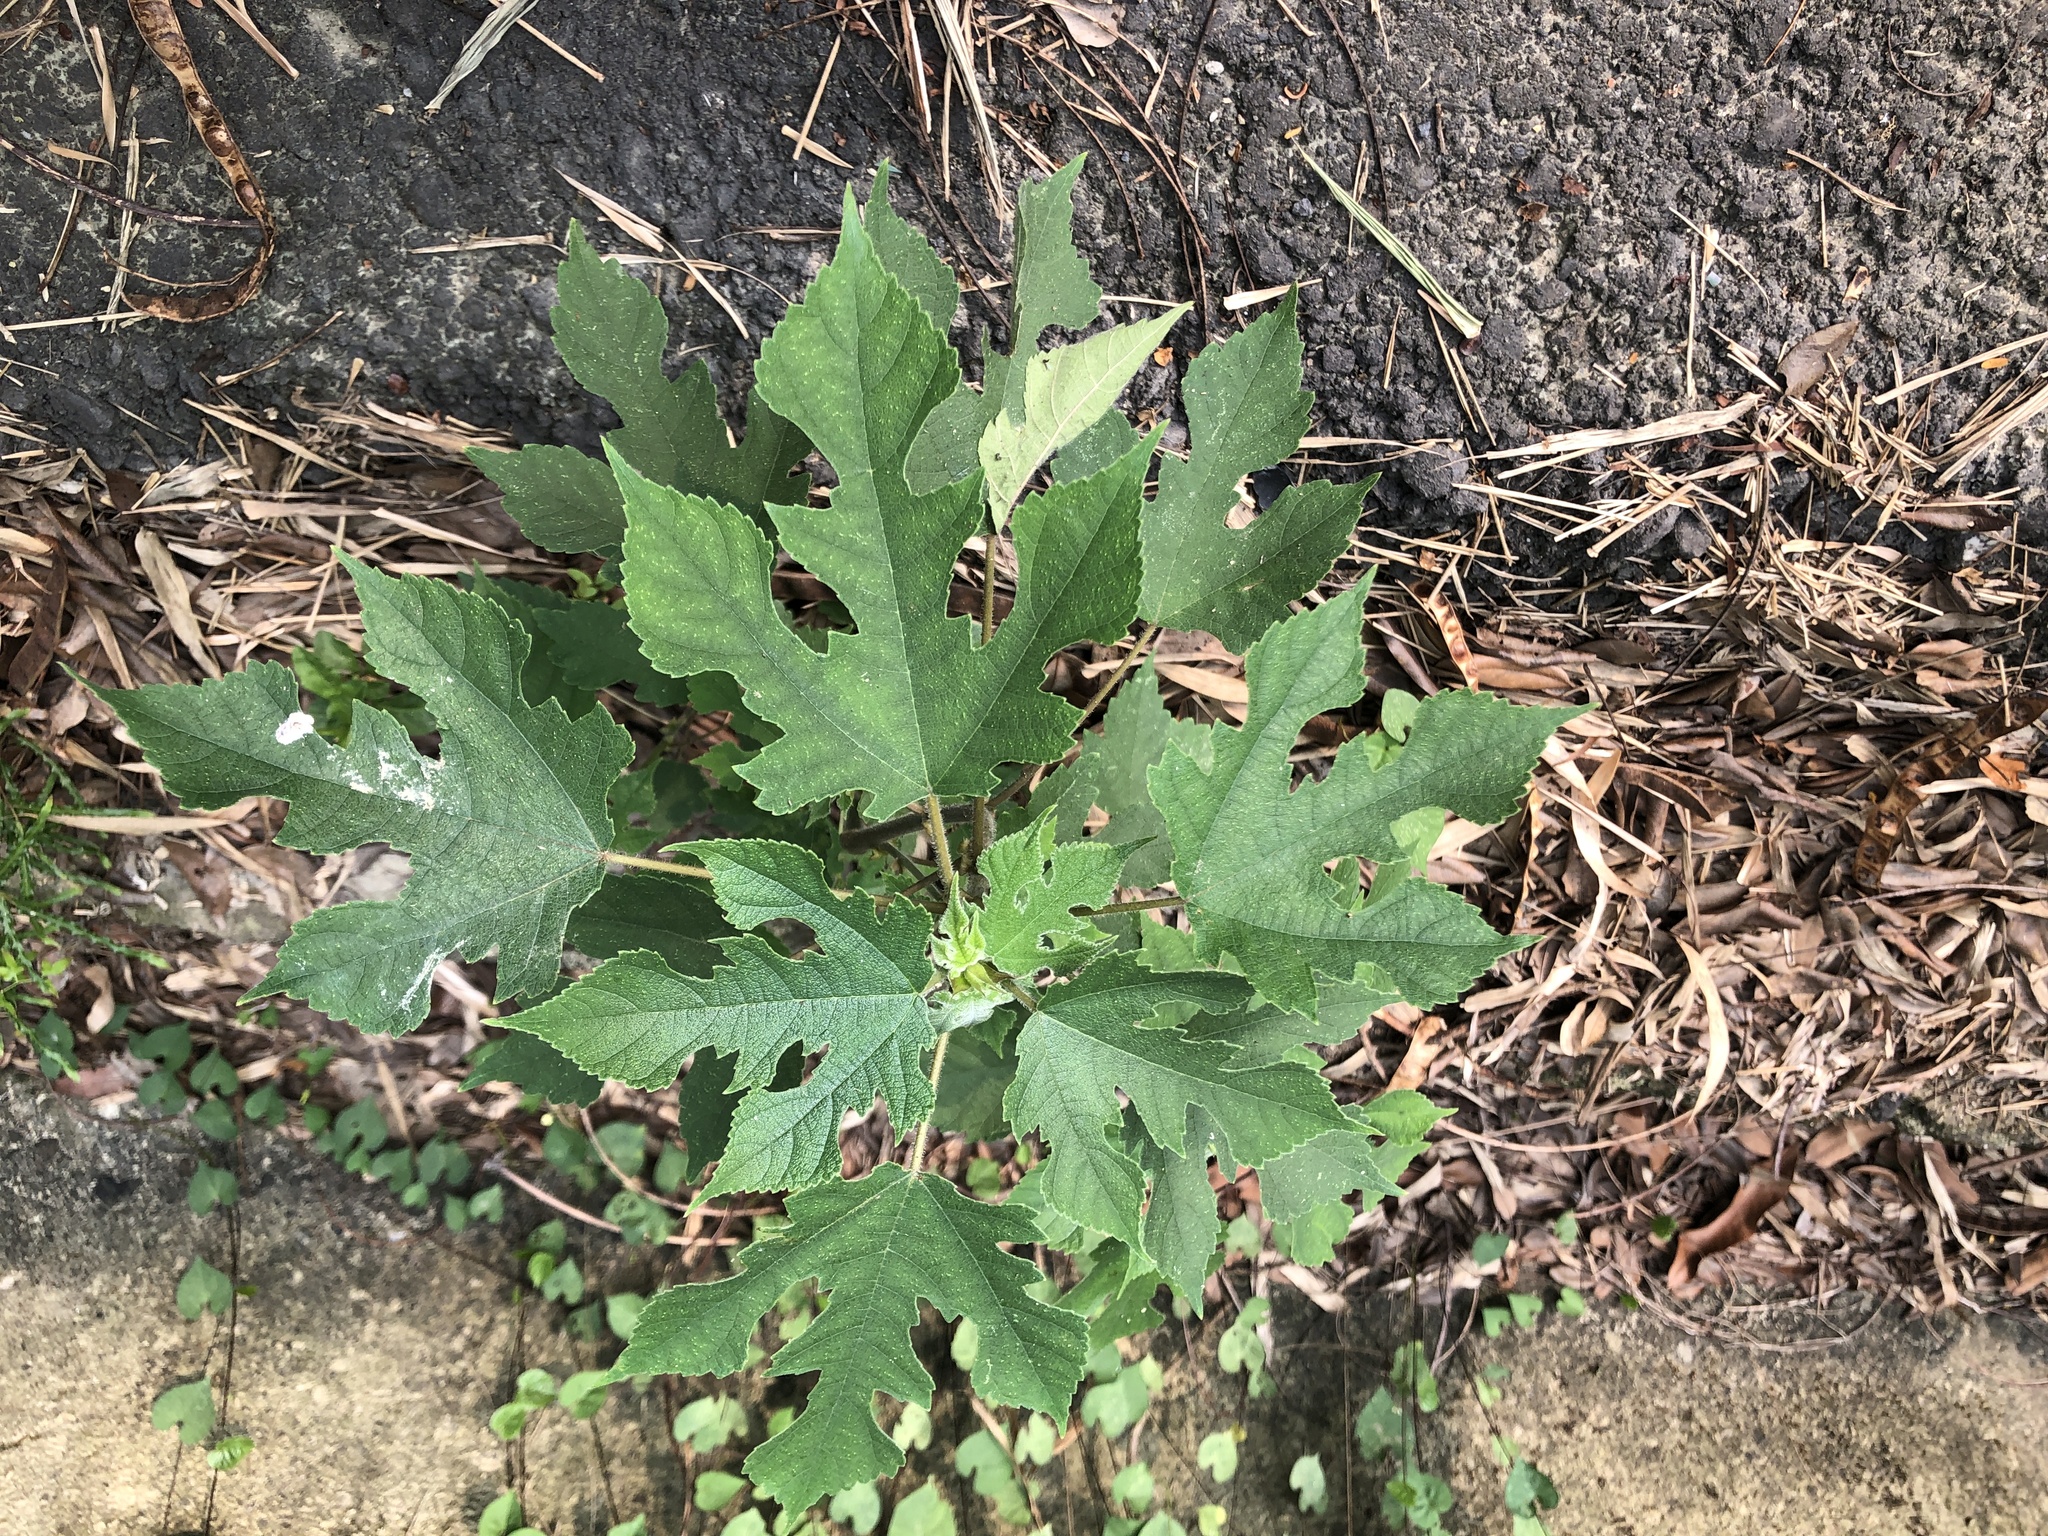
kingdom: Plantae
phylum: Tracheophyta
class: Magnoliopsida
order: Rosales
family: Moraceae
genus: Broussonetia
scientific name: Broussonetia papyrifera
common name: Paper mulberry
